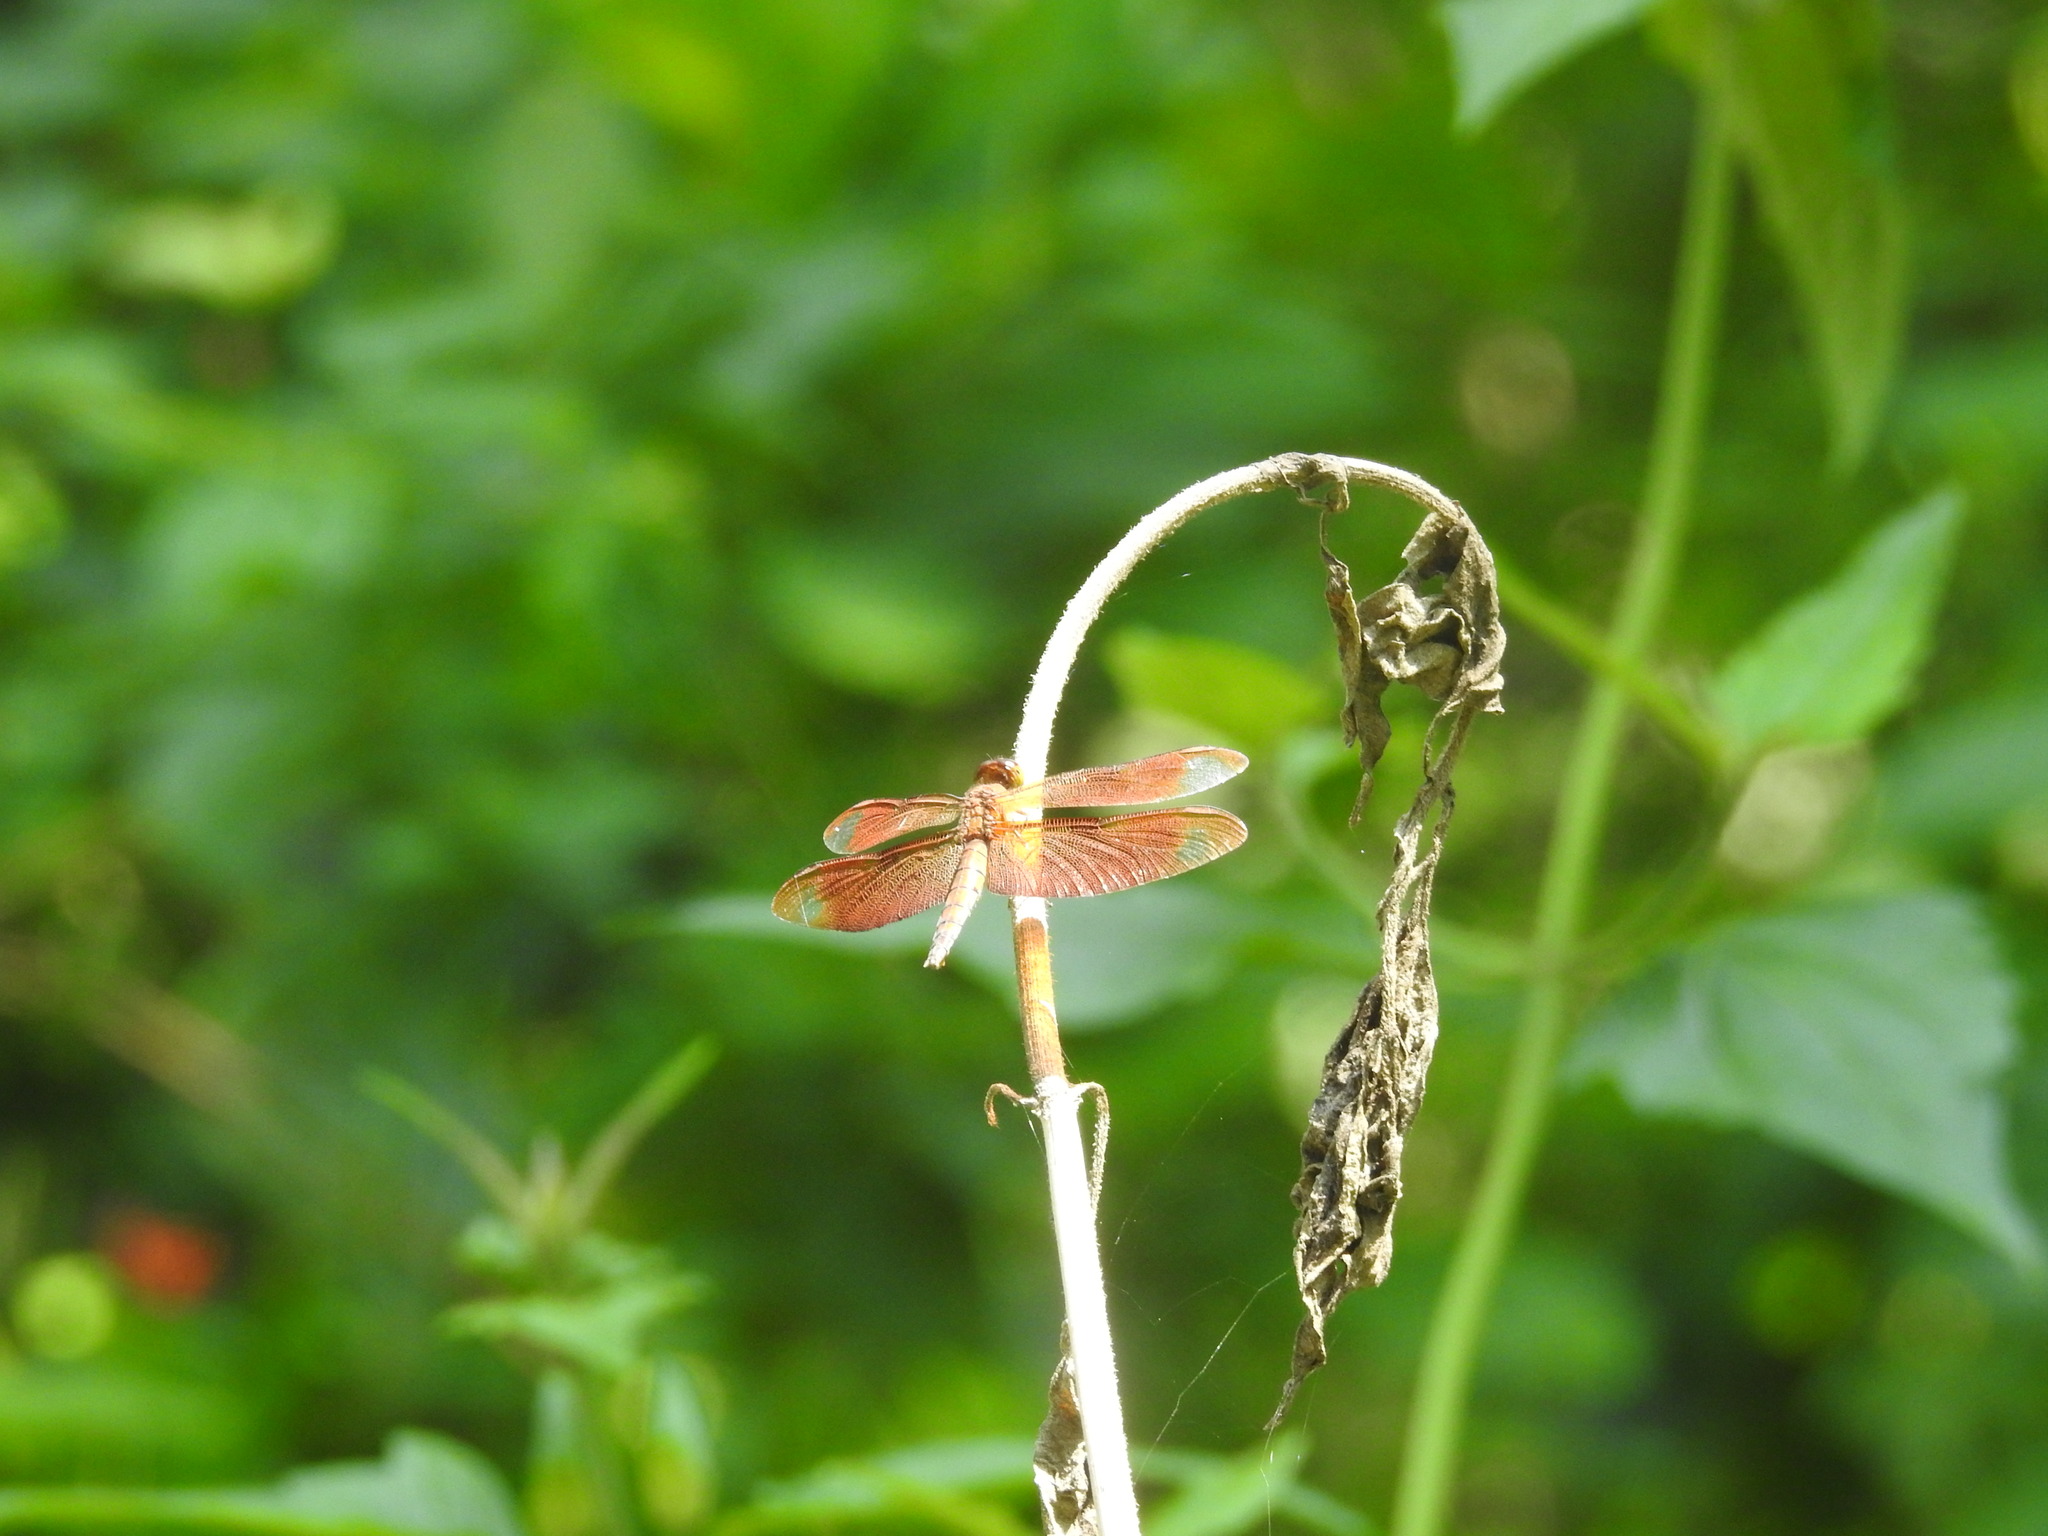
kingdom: Animalia
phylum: Arthropoda
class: Insecta
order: Odonata
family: Libellulidae
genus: Neurothemis
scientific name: Neurothemis fulvia
